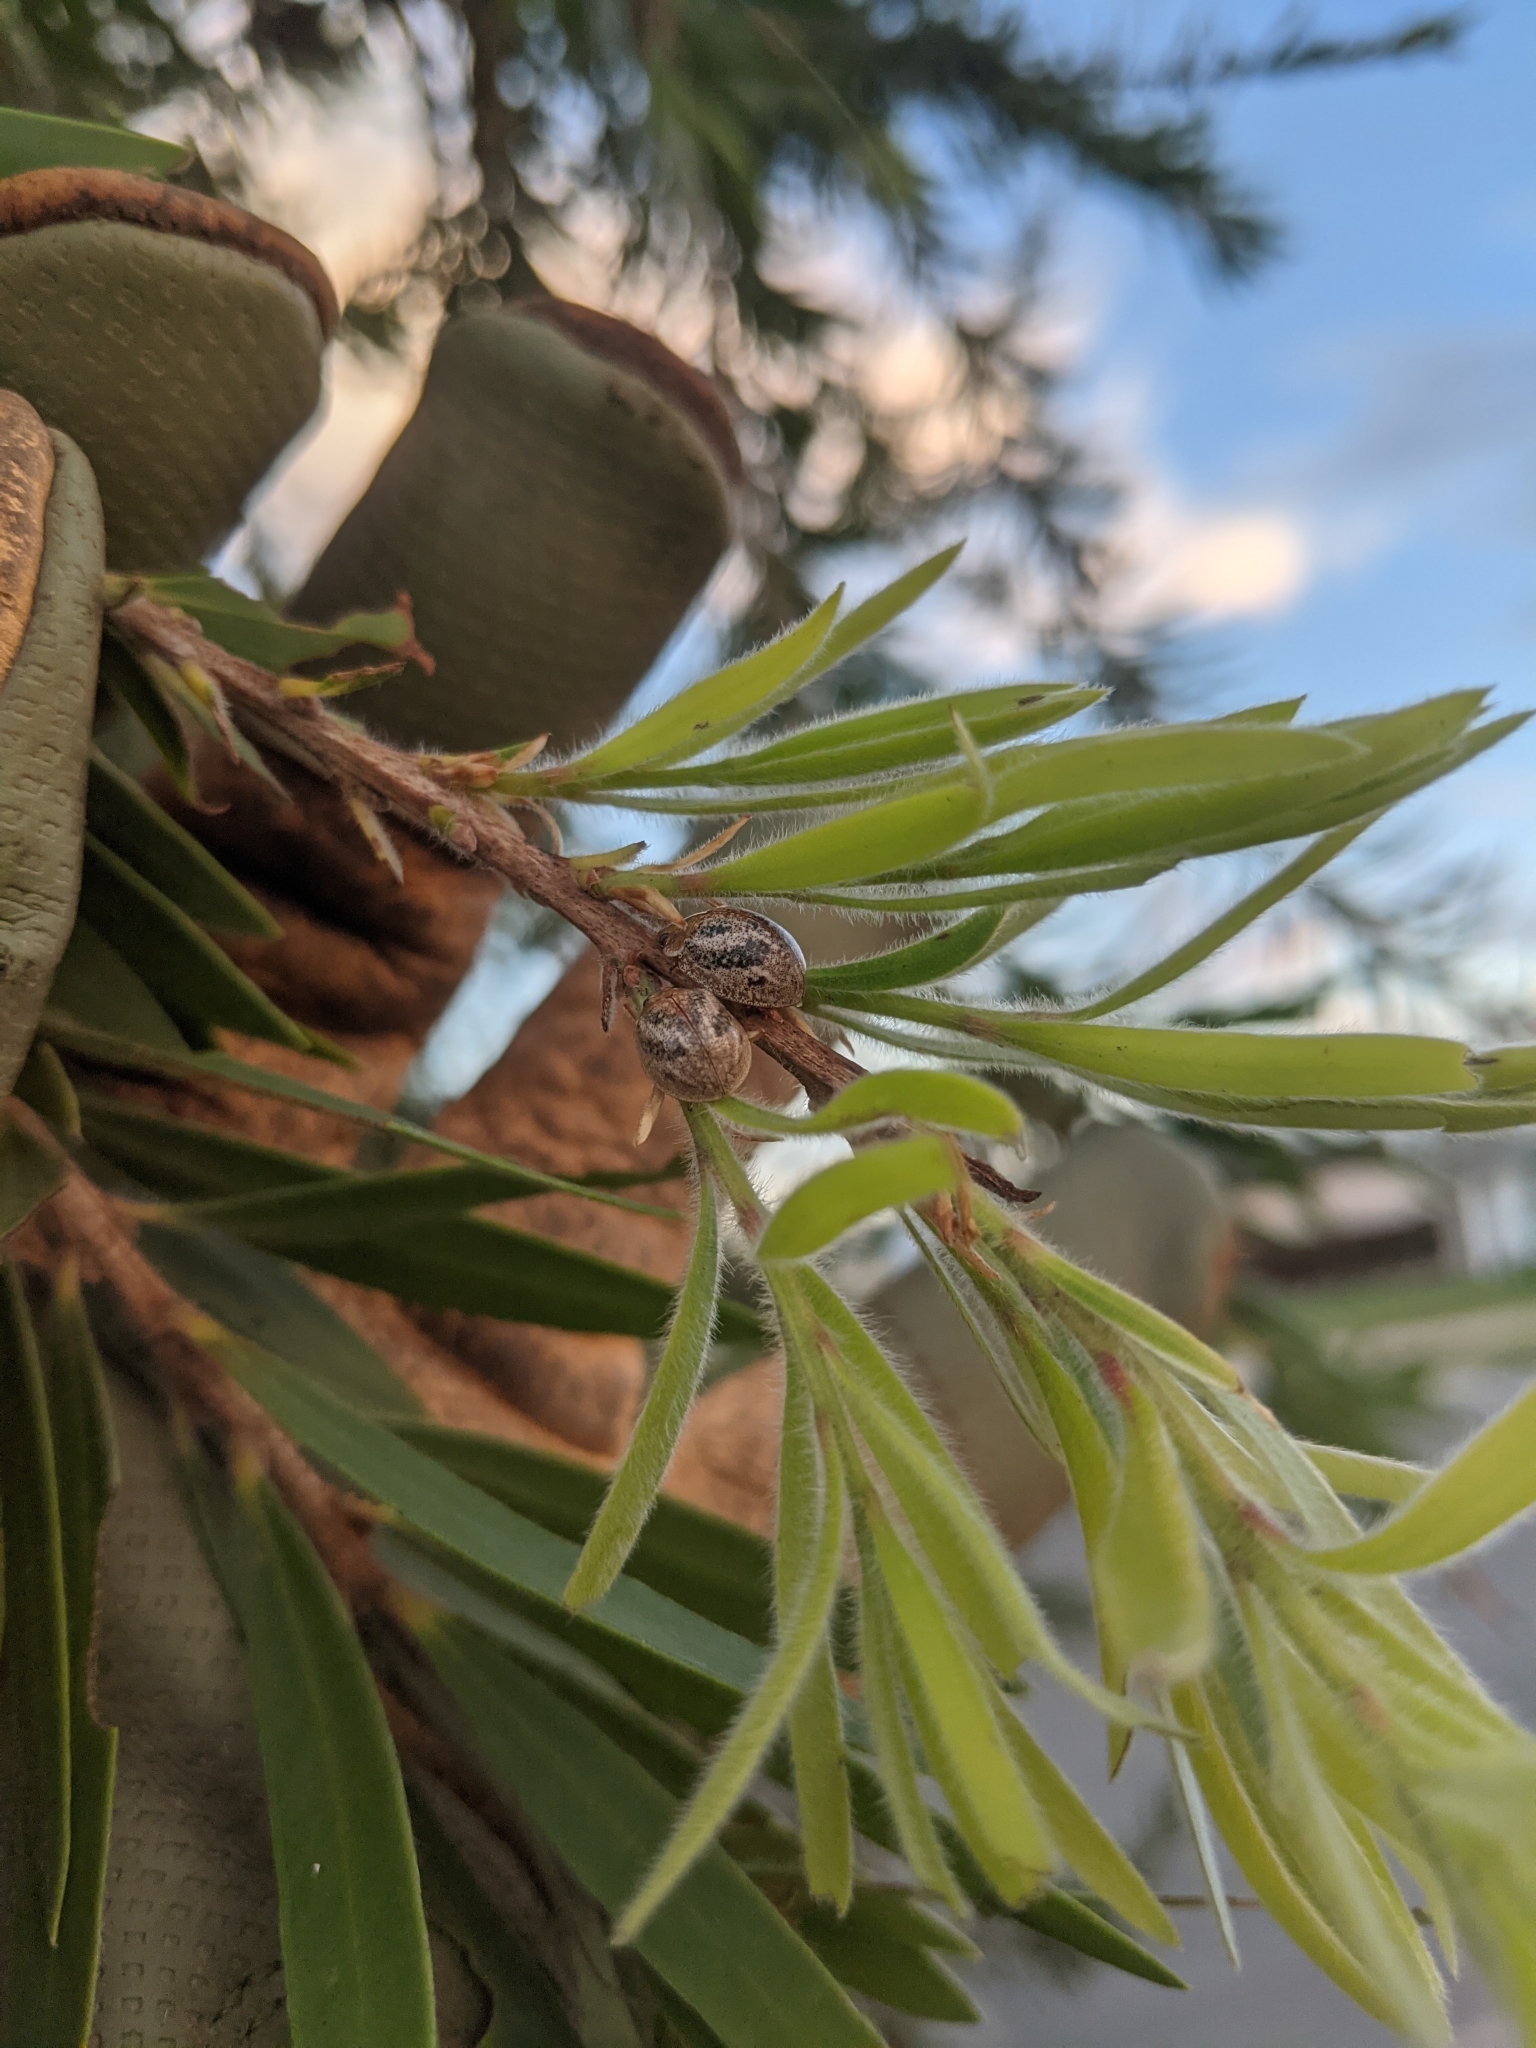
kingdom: Animalia
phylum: Arthropoda
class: Insecta
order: Coleoptera
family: Chrysomelidae
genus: Paropsisterna
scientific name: Paropsisterna
